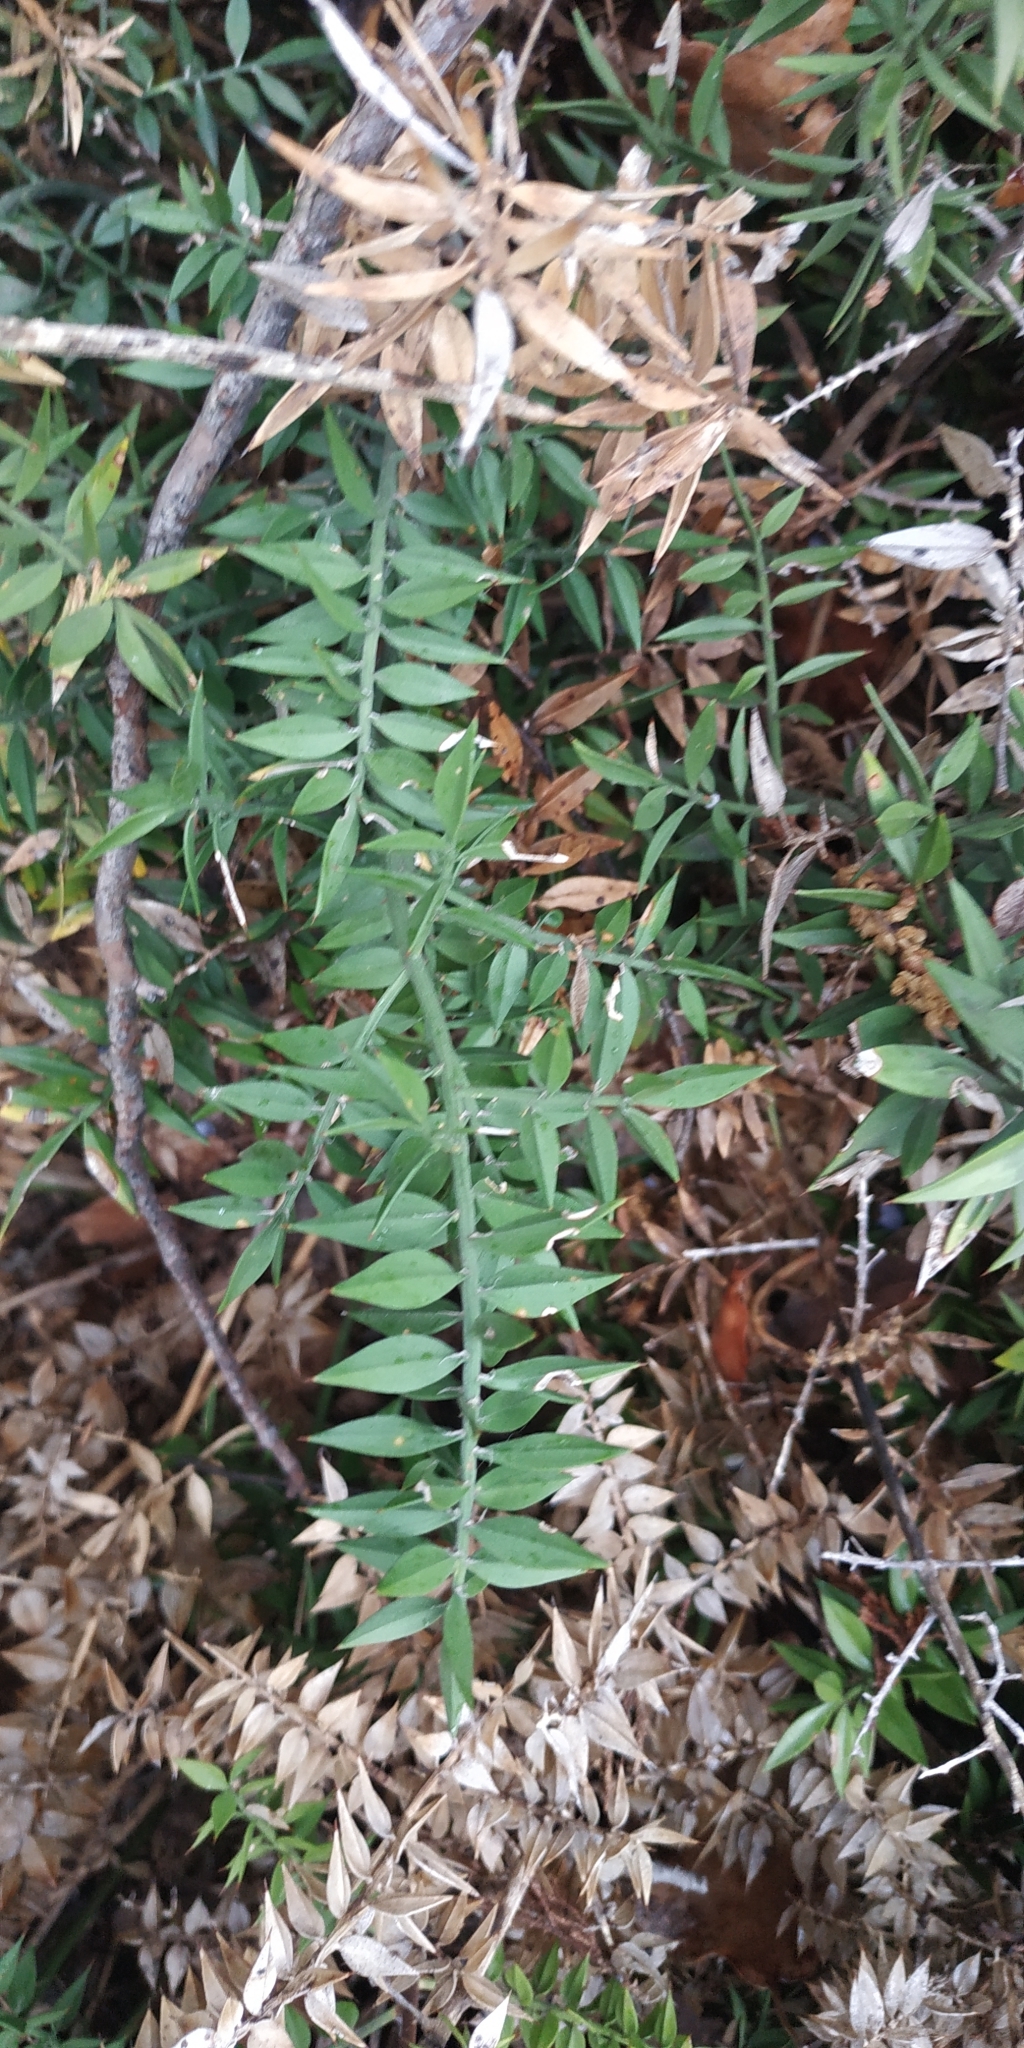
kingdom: Plantae
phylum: Tracheophyta
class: Liliopsida
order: Asparagales
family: Asparagaceae
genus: Ruscus
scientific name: Ruscus aculeatus
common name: Butcher's-broom
